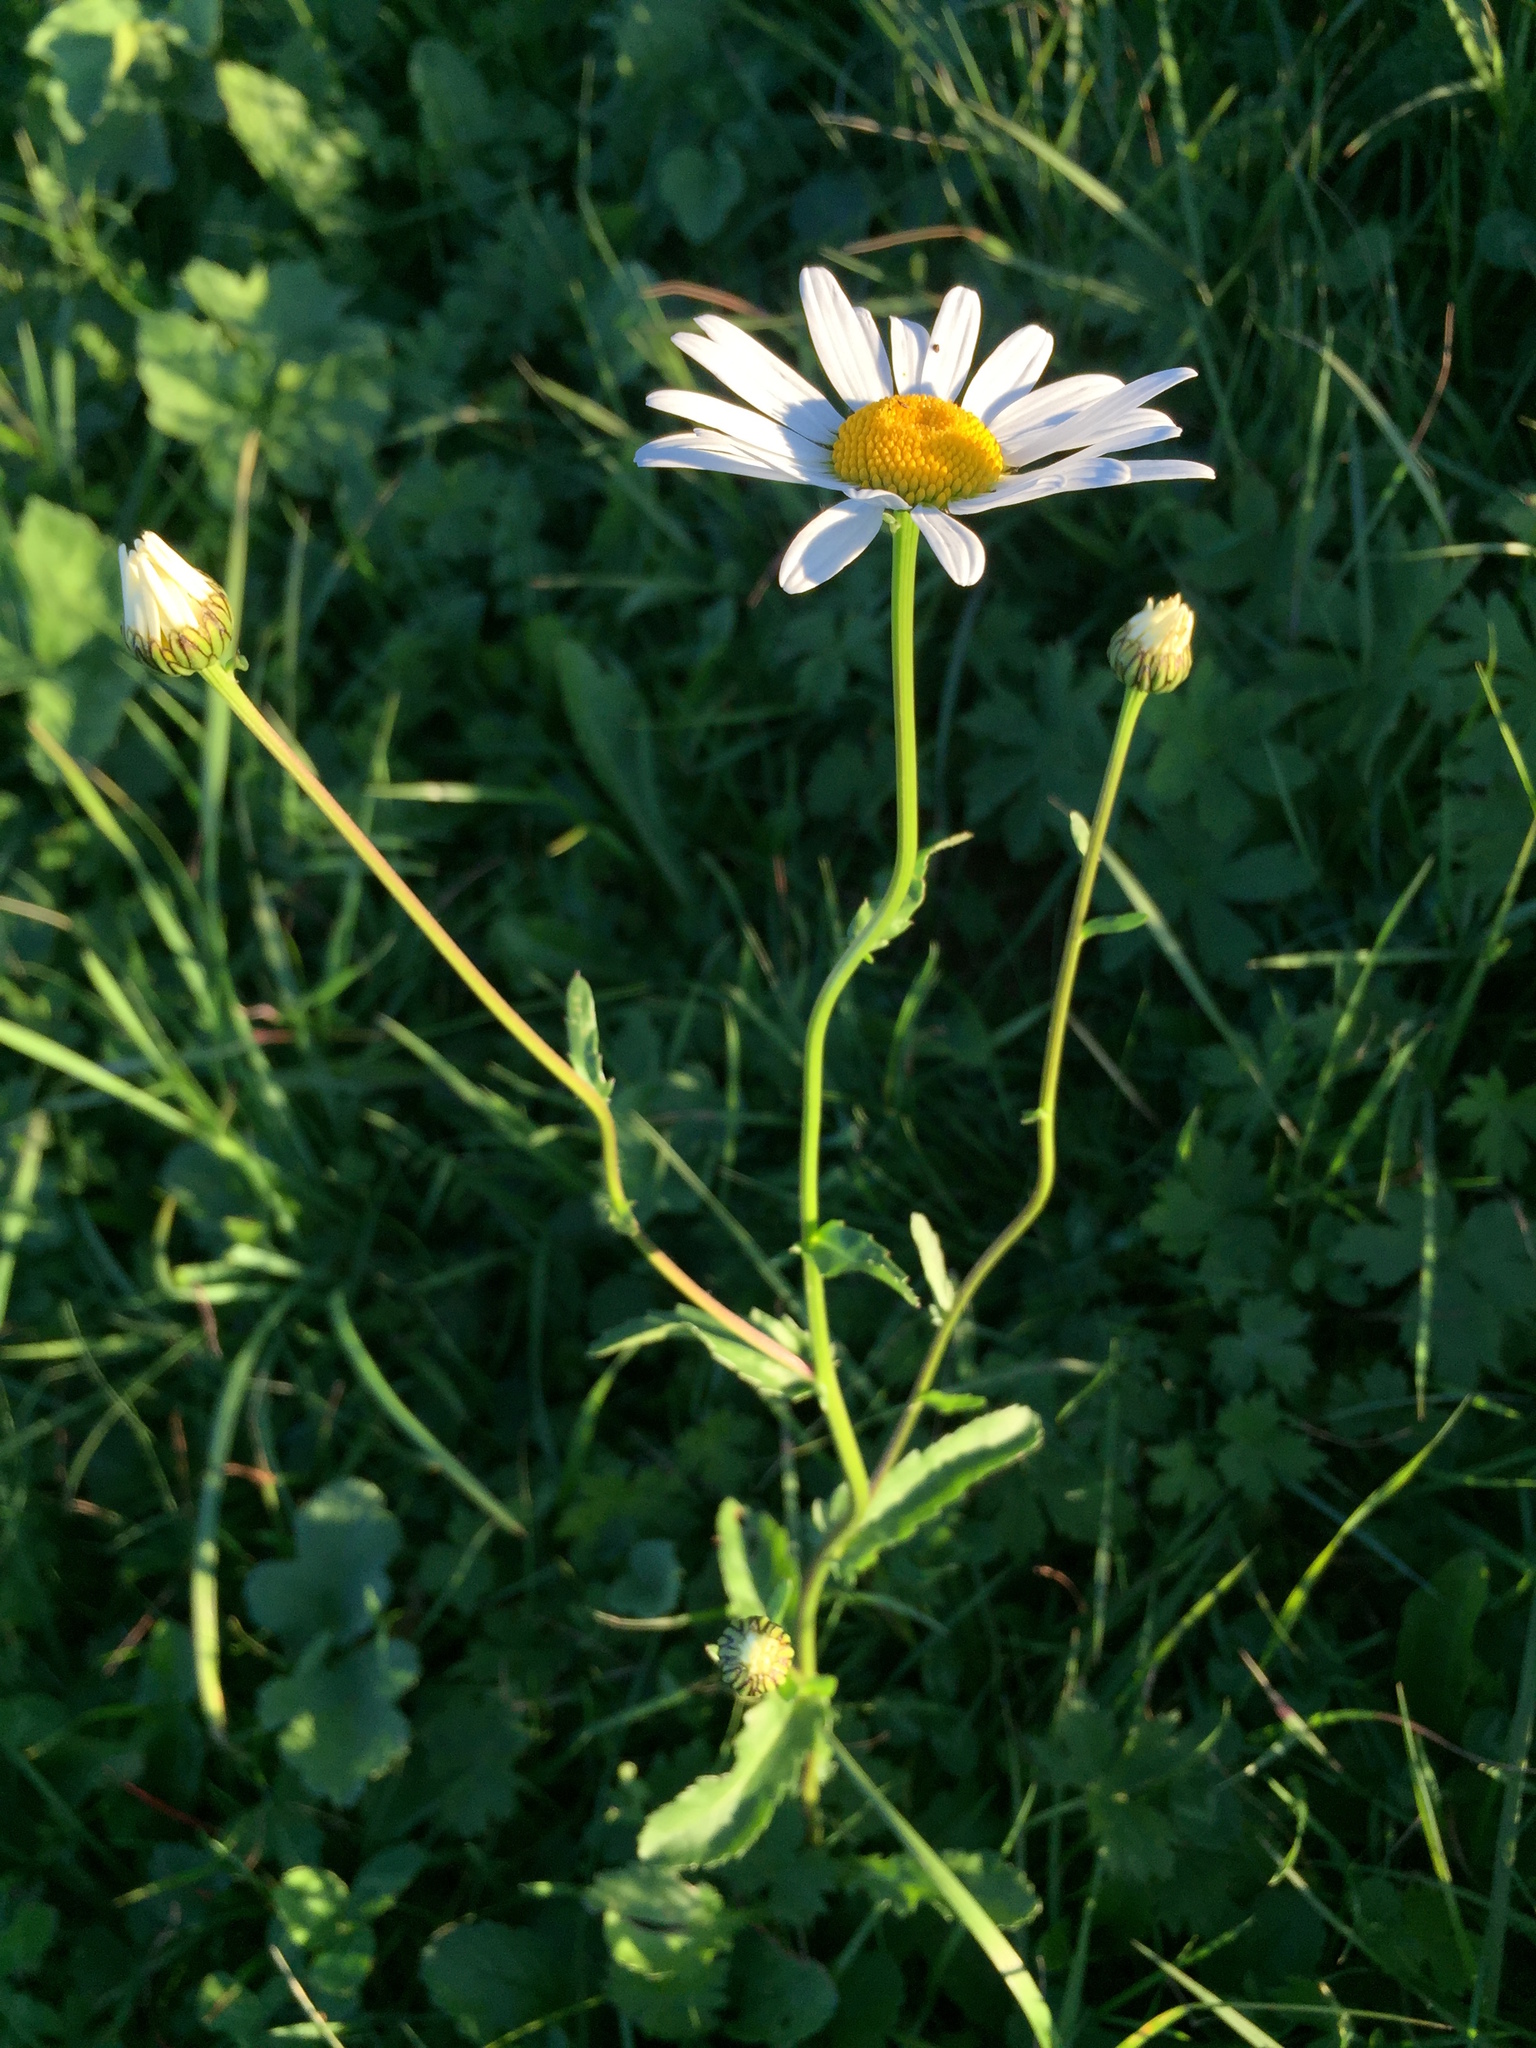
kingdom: Plantae
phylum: Tracheophyta
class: Magnoliopsida
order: Asterales
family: Asteraceae
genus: Leucanthemum
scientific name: Leucanthemum vulgare
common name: Oxeye daisy
